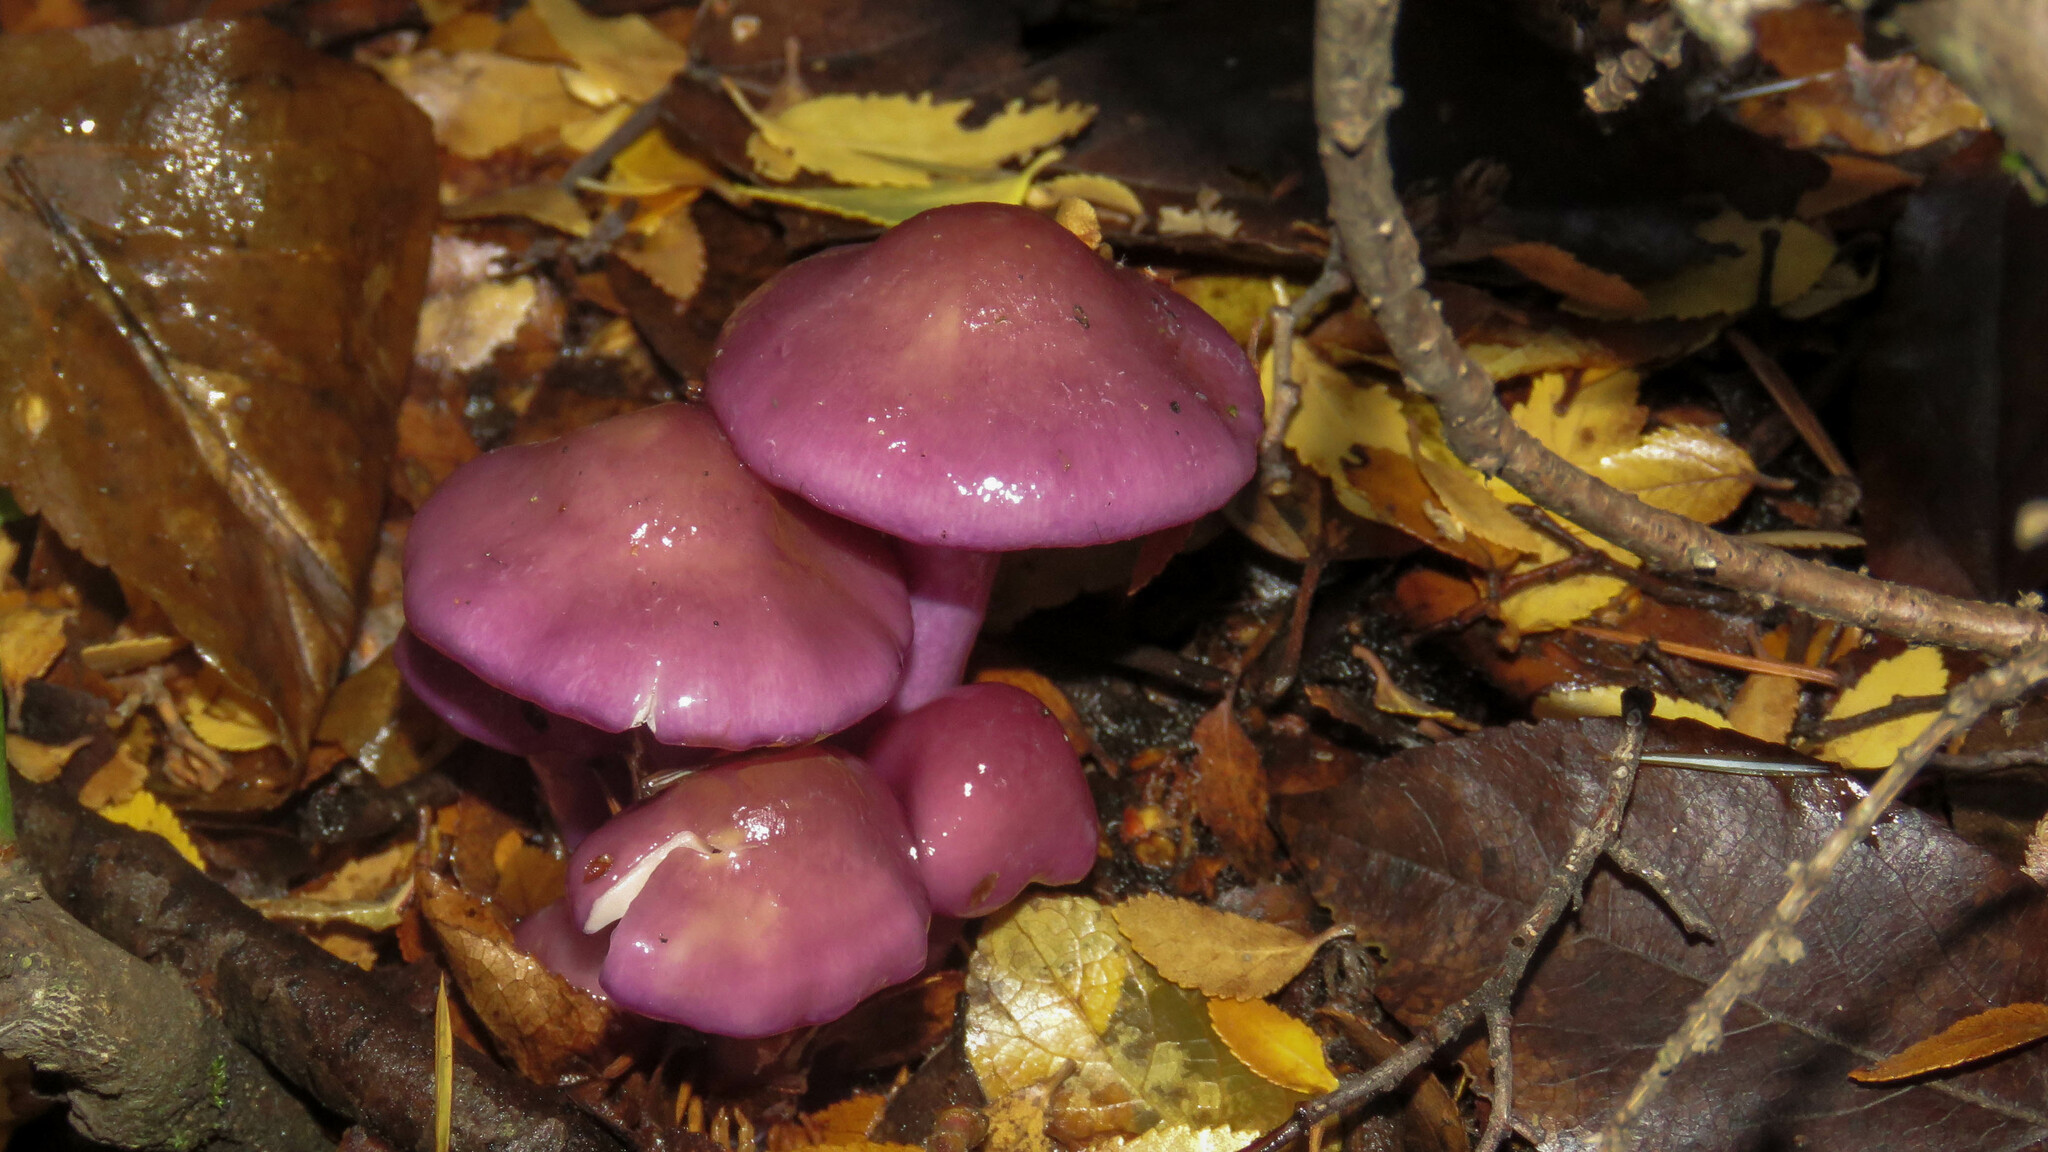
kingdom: Fungi
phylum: Basidiomycota
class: Agaricomycetes
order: Agaricales
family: Cortinariaceae
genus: Cortinarius
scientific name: Cortinarius magellanicus
